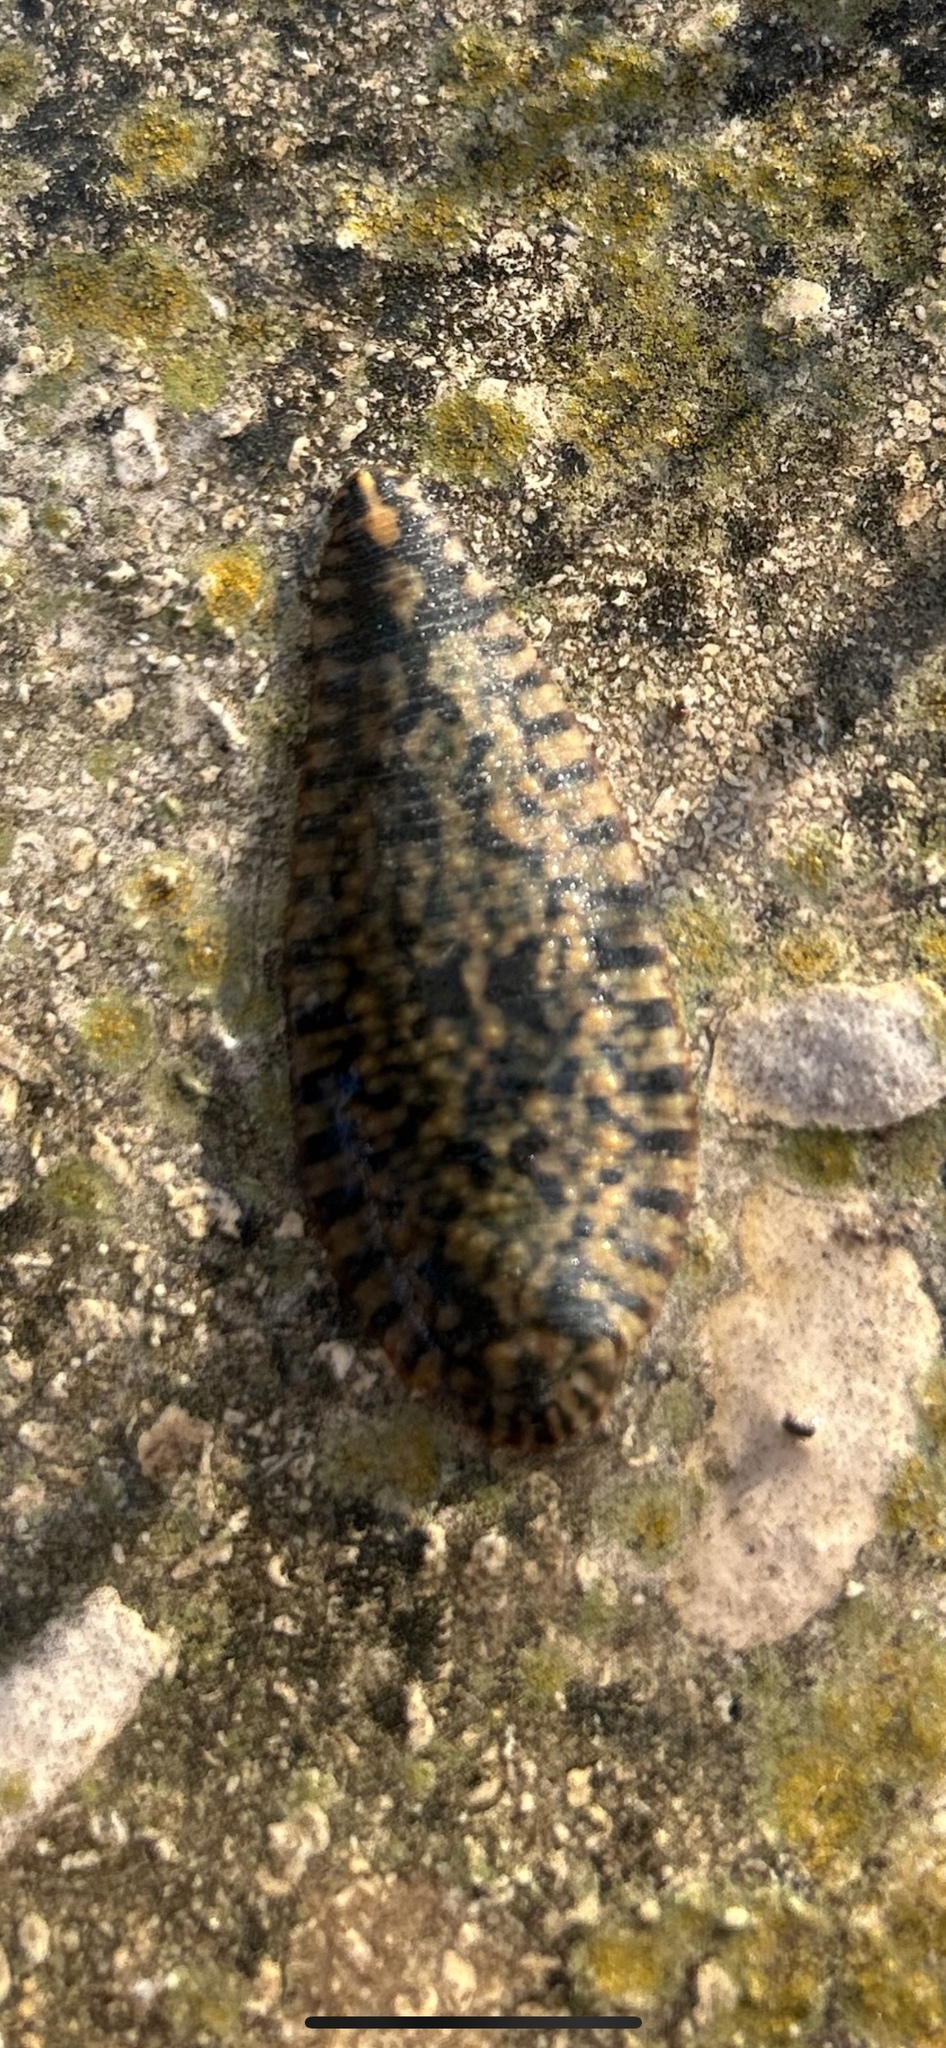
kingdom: Animalia
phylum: Annelida
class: Clitellata
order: Rhynchobdellida
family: Glossiphoniidae
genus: Placobdella
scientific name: Placobdella parasitica
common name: Smooth turtle leech
